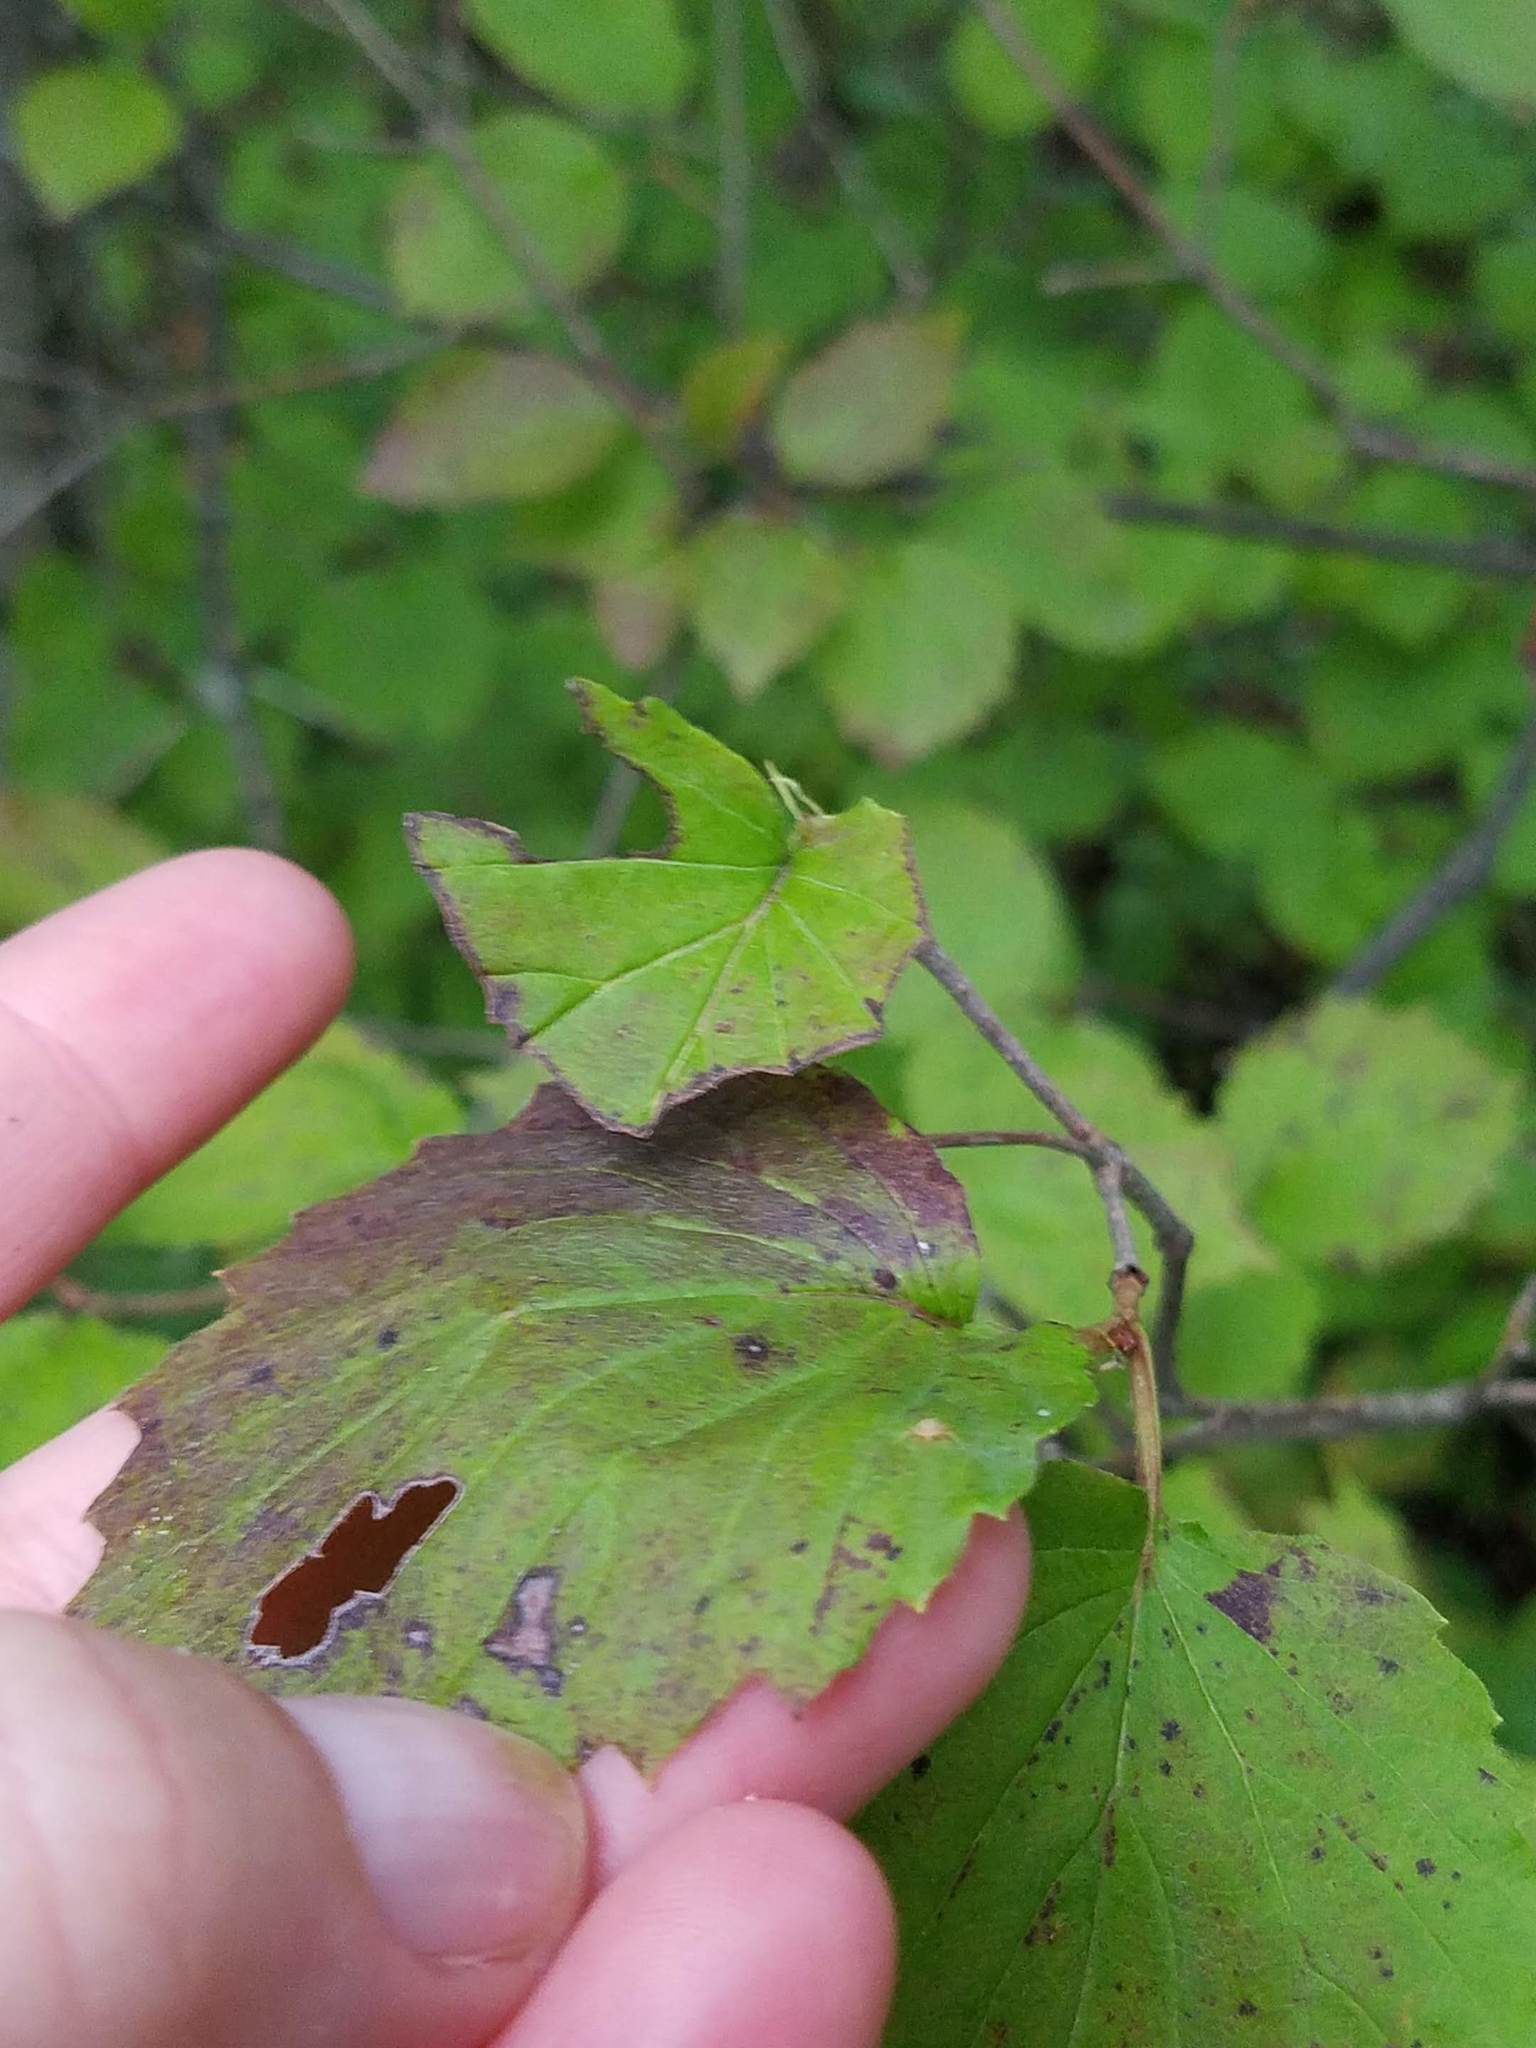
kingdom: Plantae
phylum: Tracheophyta
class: Magnoliopsida
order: Dipsacales
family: Viburnaceae
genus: Viburnum
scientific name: Viburnum rafinesqueanum
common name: Downy arrow-wood
